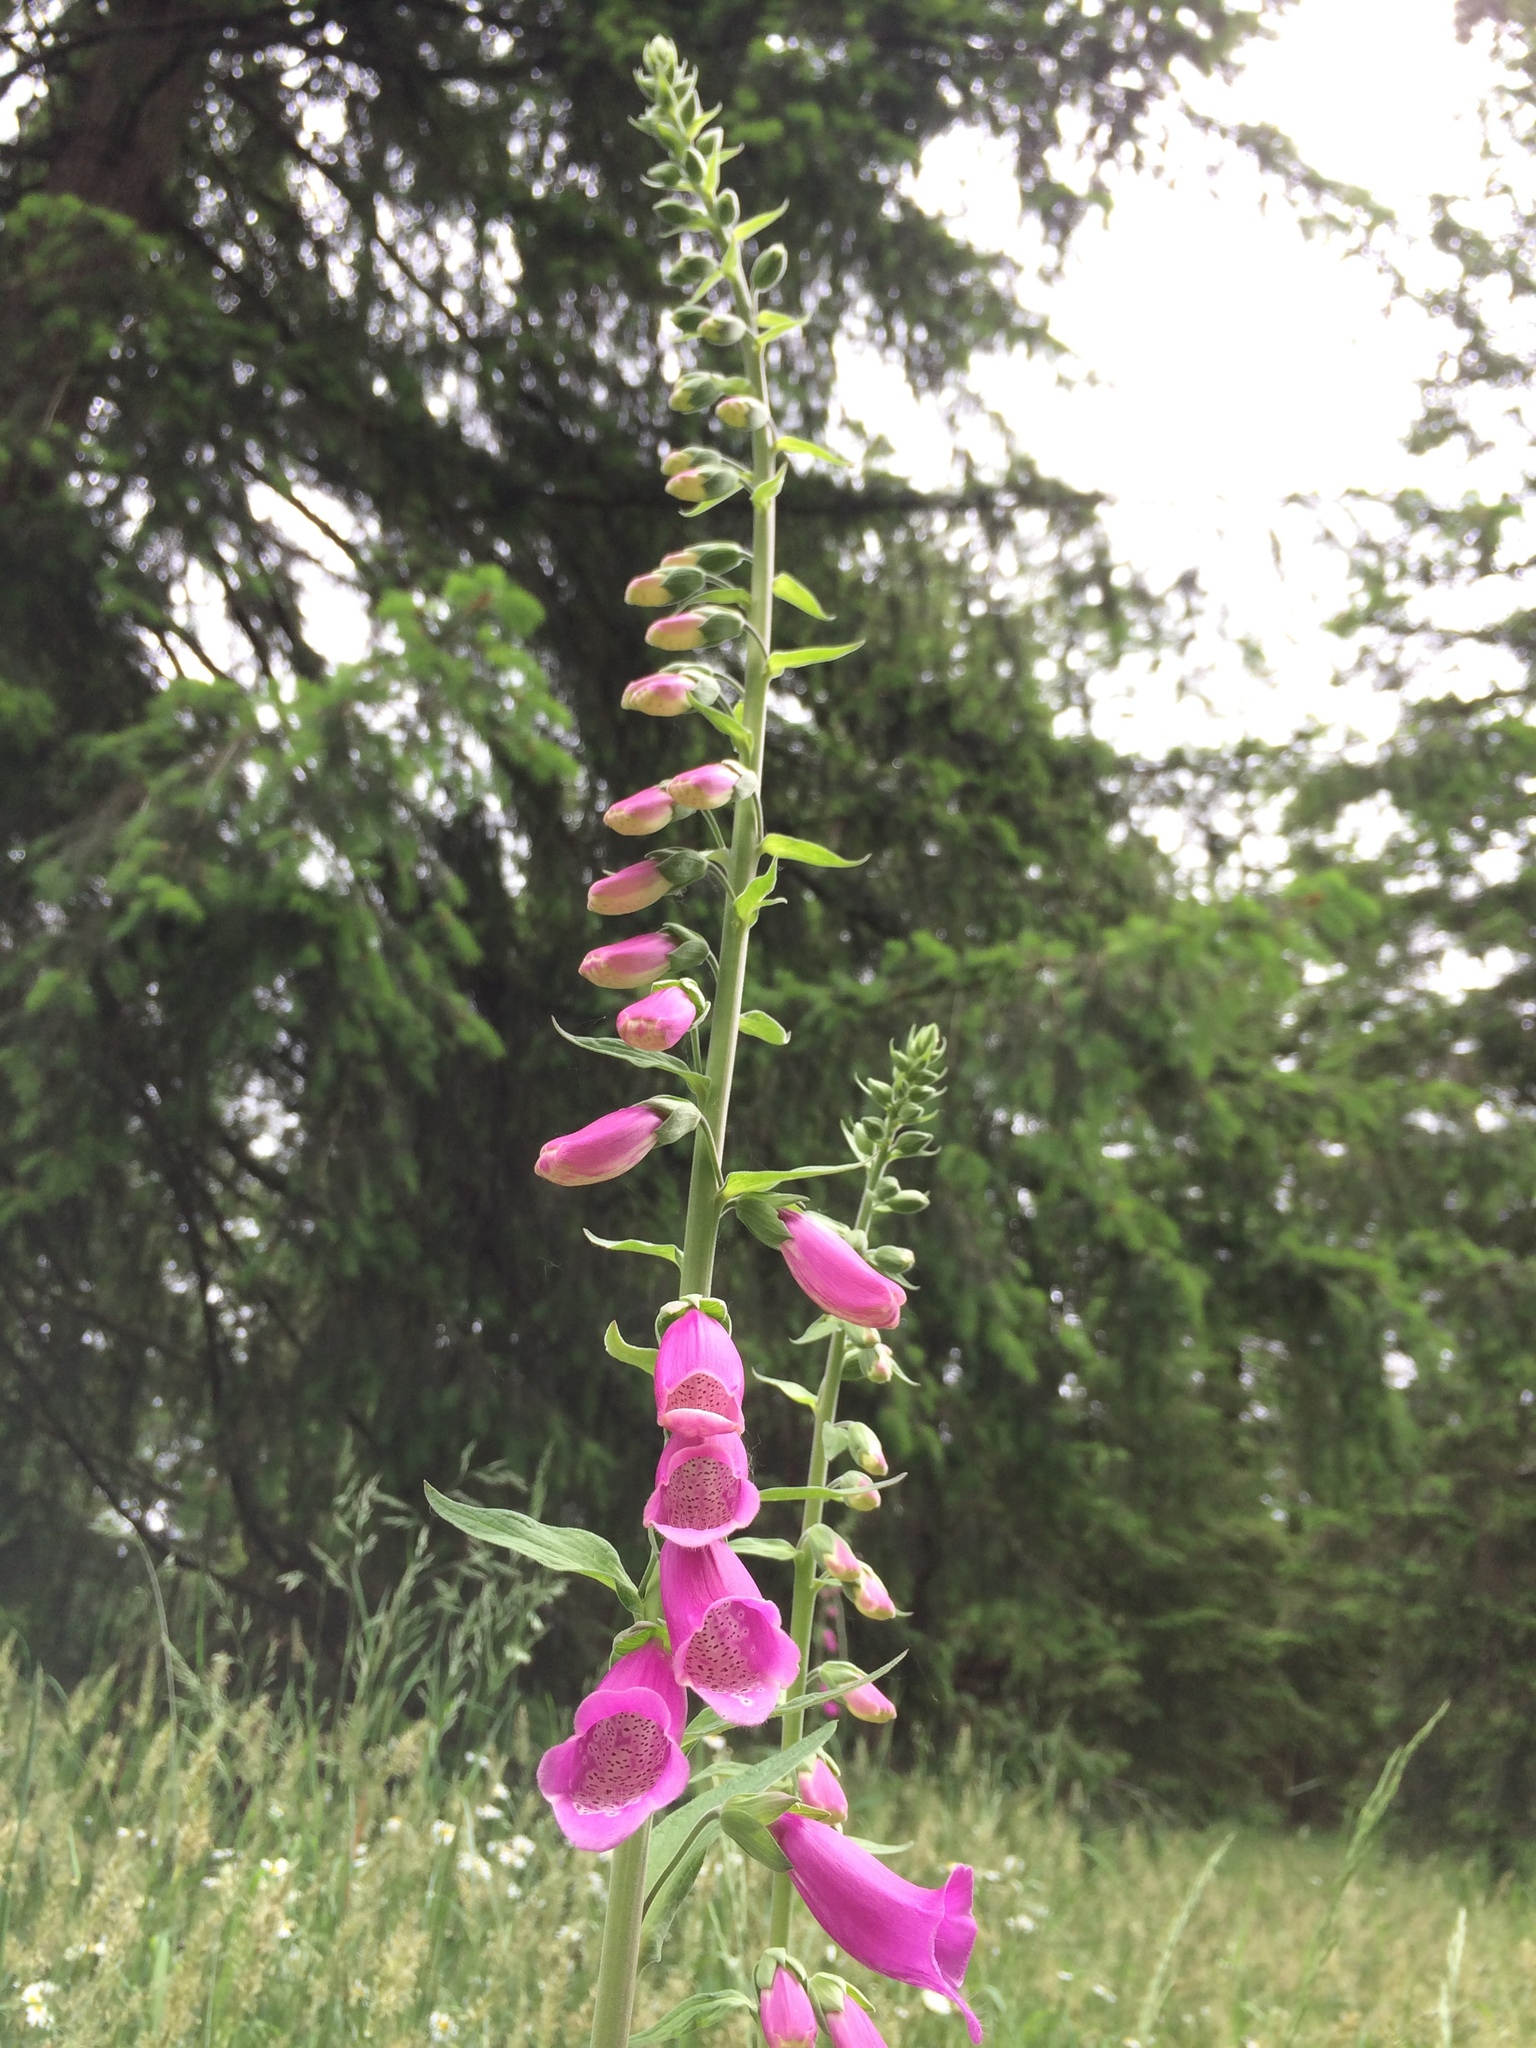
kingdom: Plantae
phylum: Tracheophyta
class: Magnoliopsida
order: Lamiales
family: Plantaginaceae
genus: Digitalis
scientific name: Digitalis purpurea
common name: Foxglove
